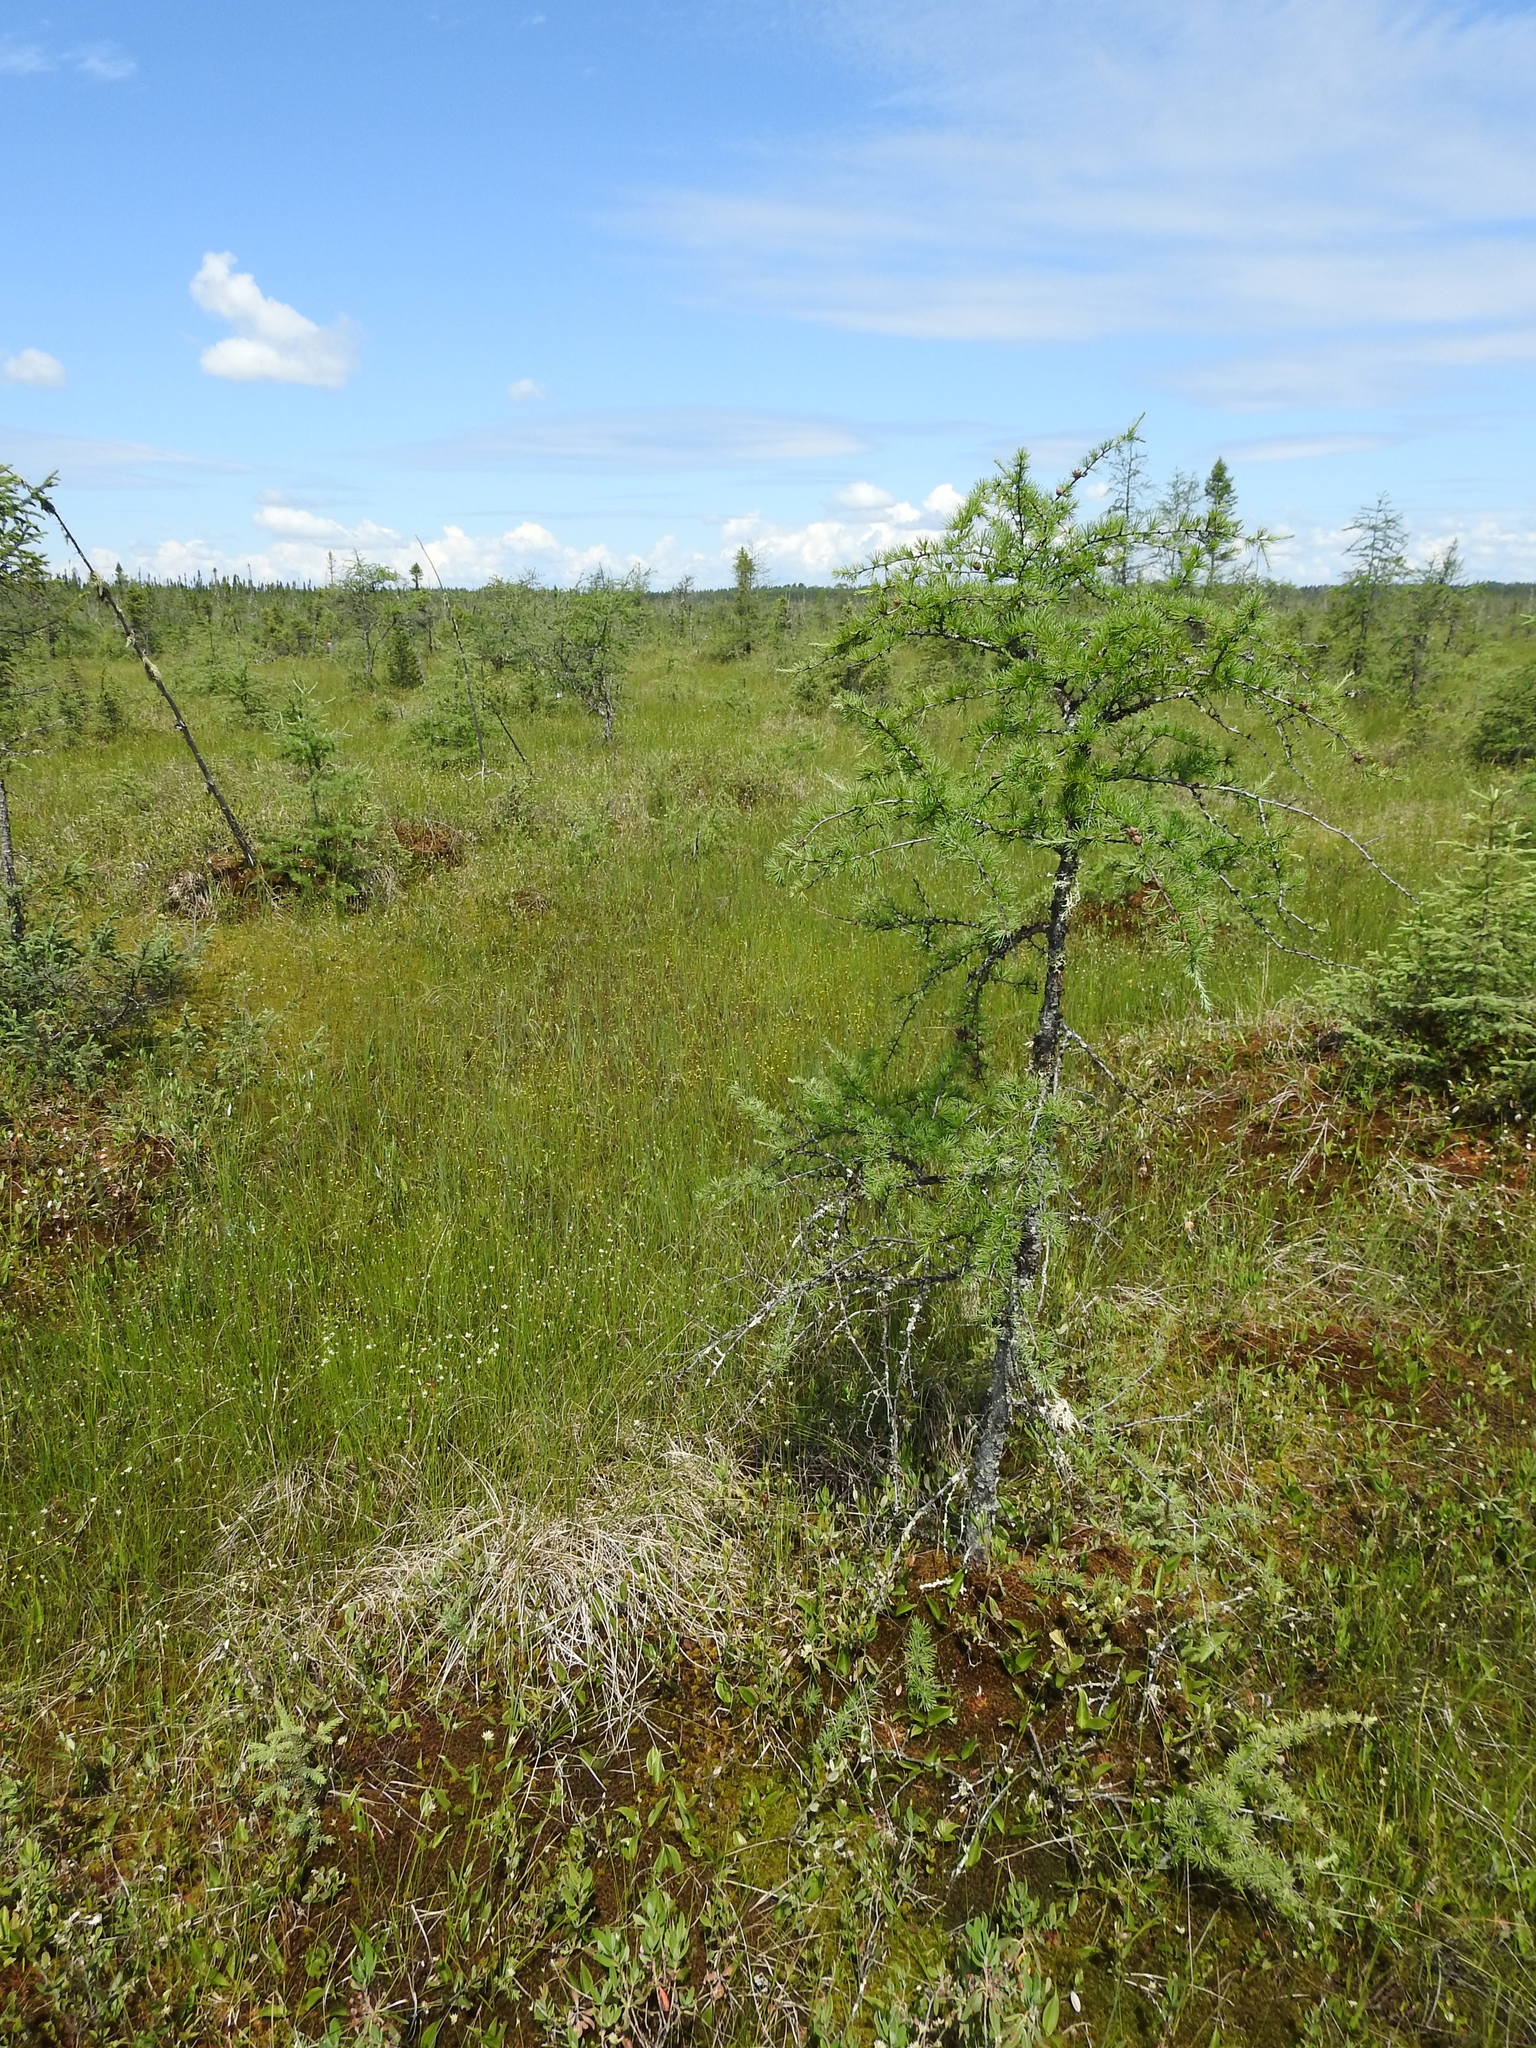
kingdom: Plantae
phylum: Tracheophyta
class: Pinopsida
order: Pinales
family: Pinaceae
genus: Larix
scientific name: Larix laricina
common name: American larch
